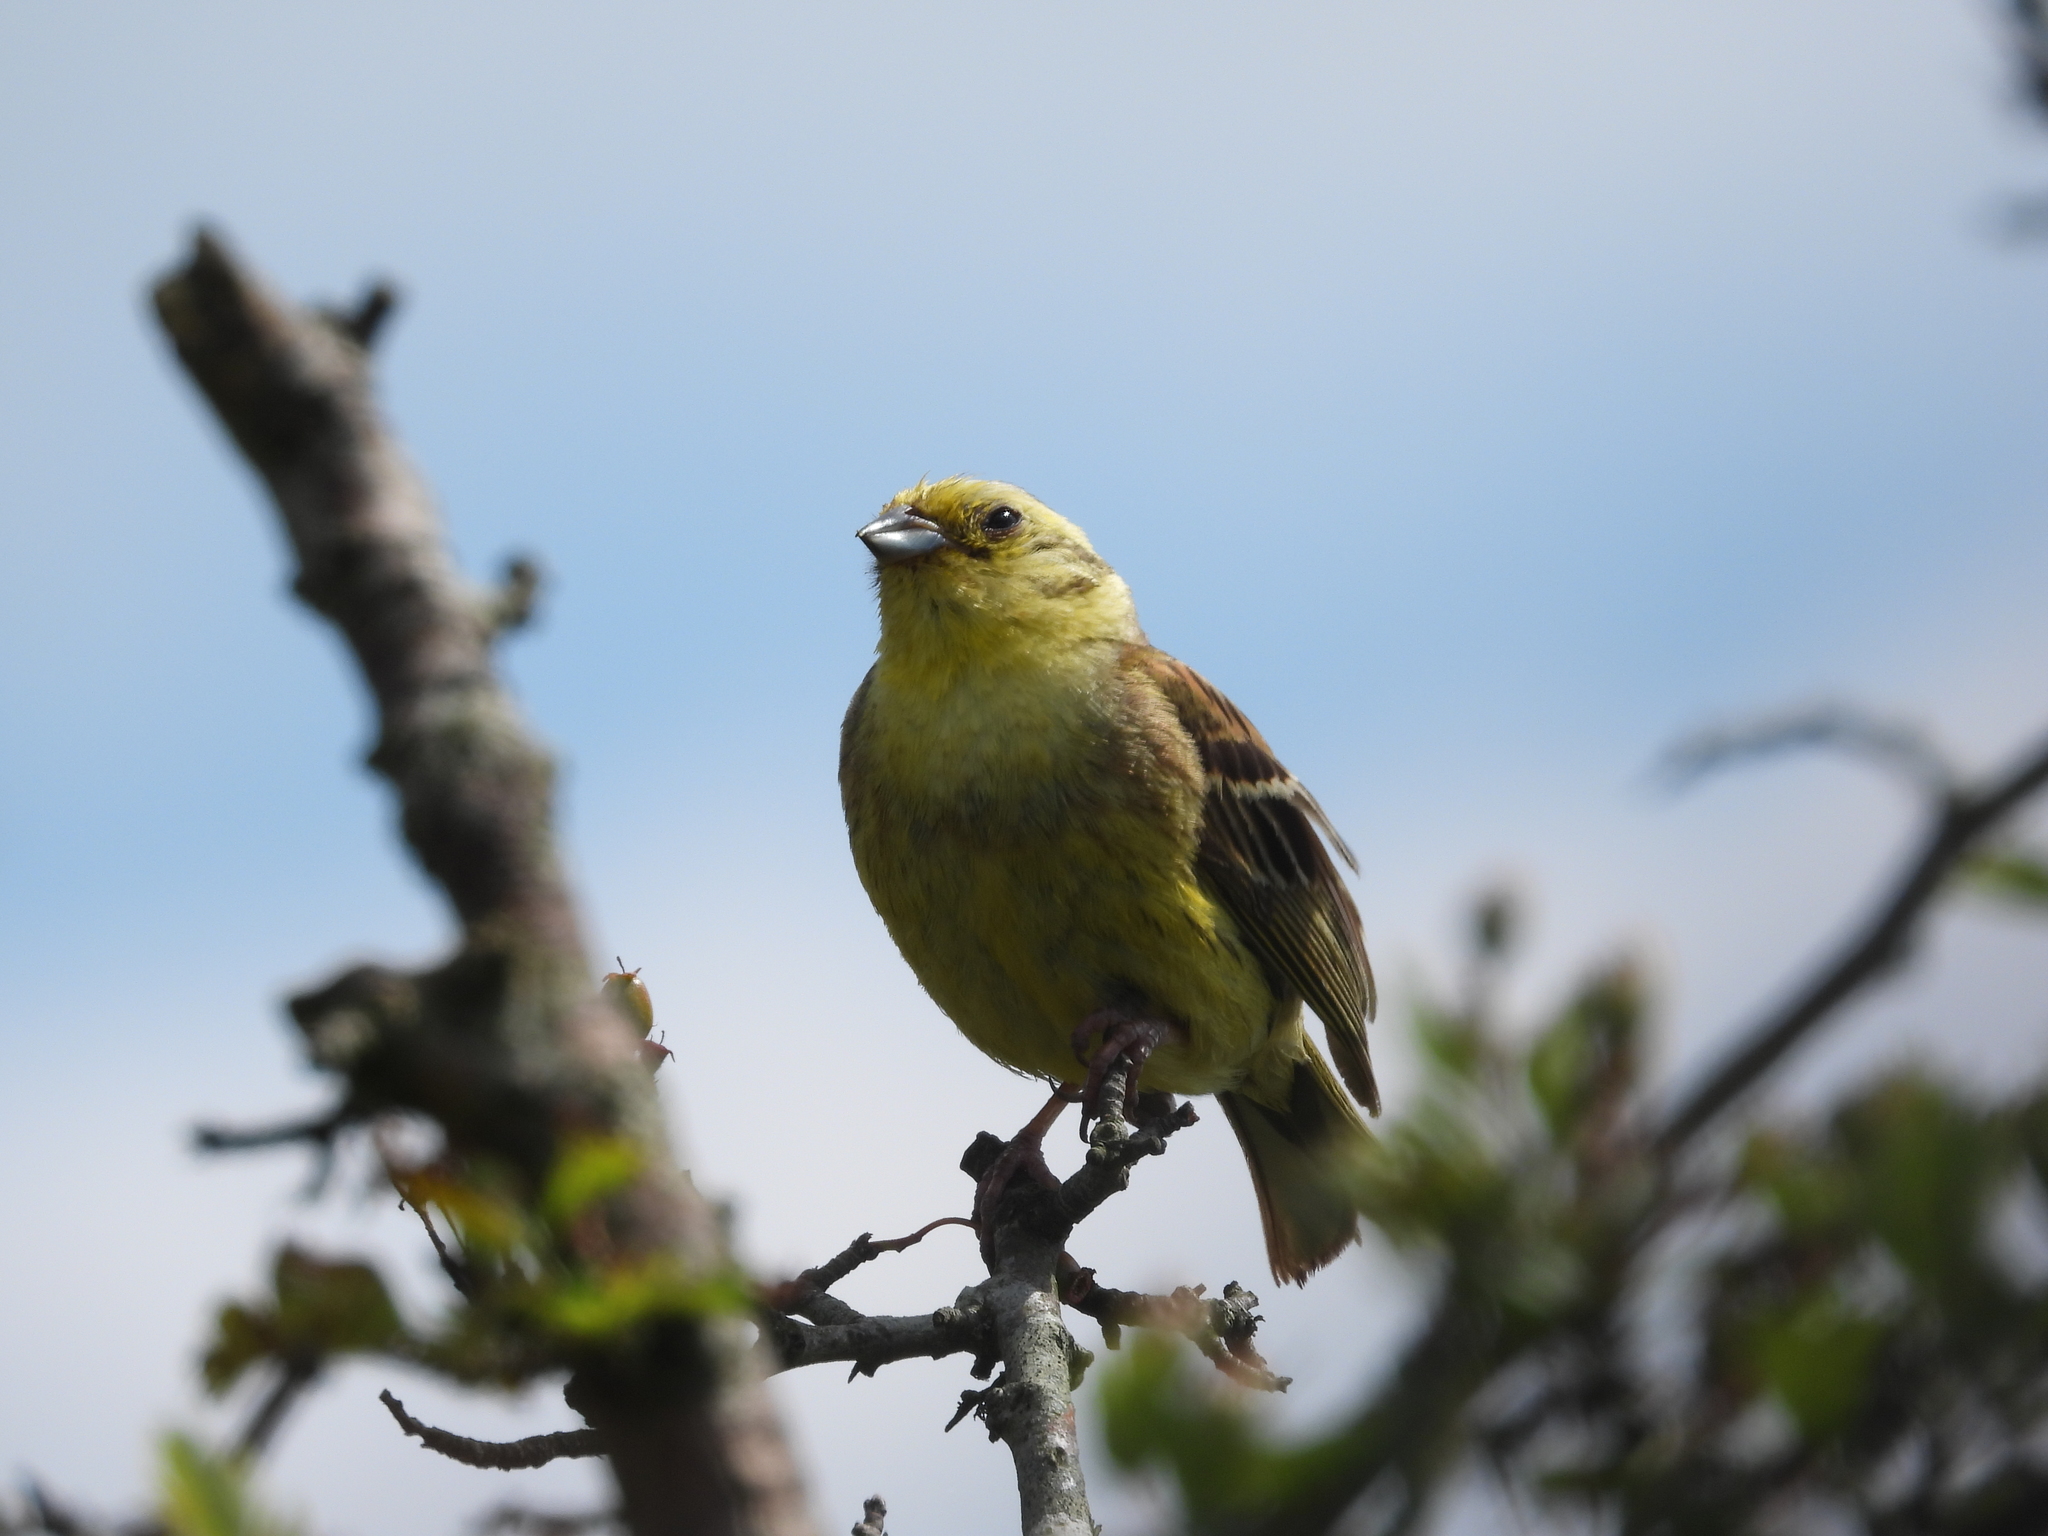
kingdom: Animalia
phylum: Chordata
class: Aves
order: Passeriformes
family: Emberizidae
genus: Emberiza
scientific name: Emberiza citrinella
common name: Yellowhammer
